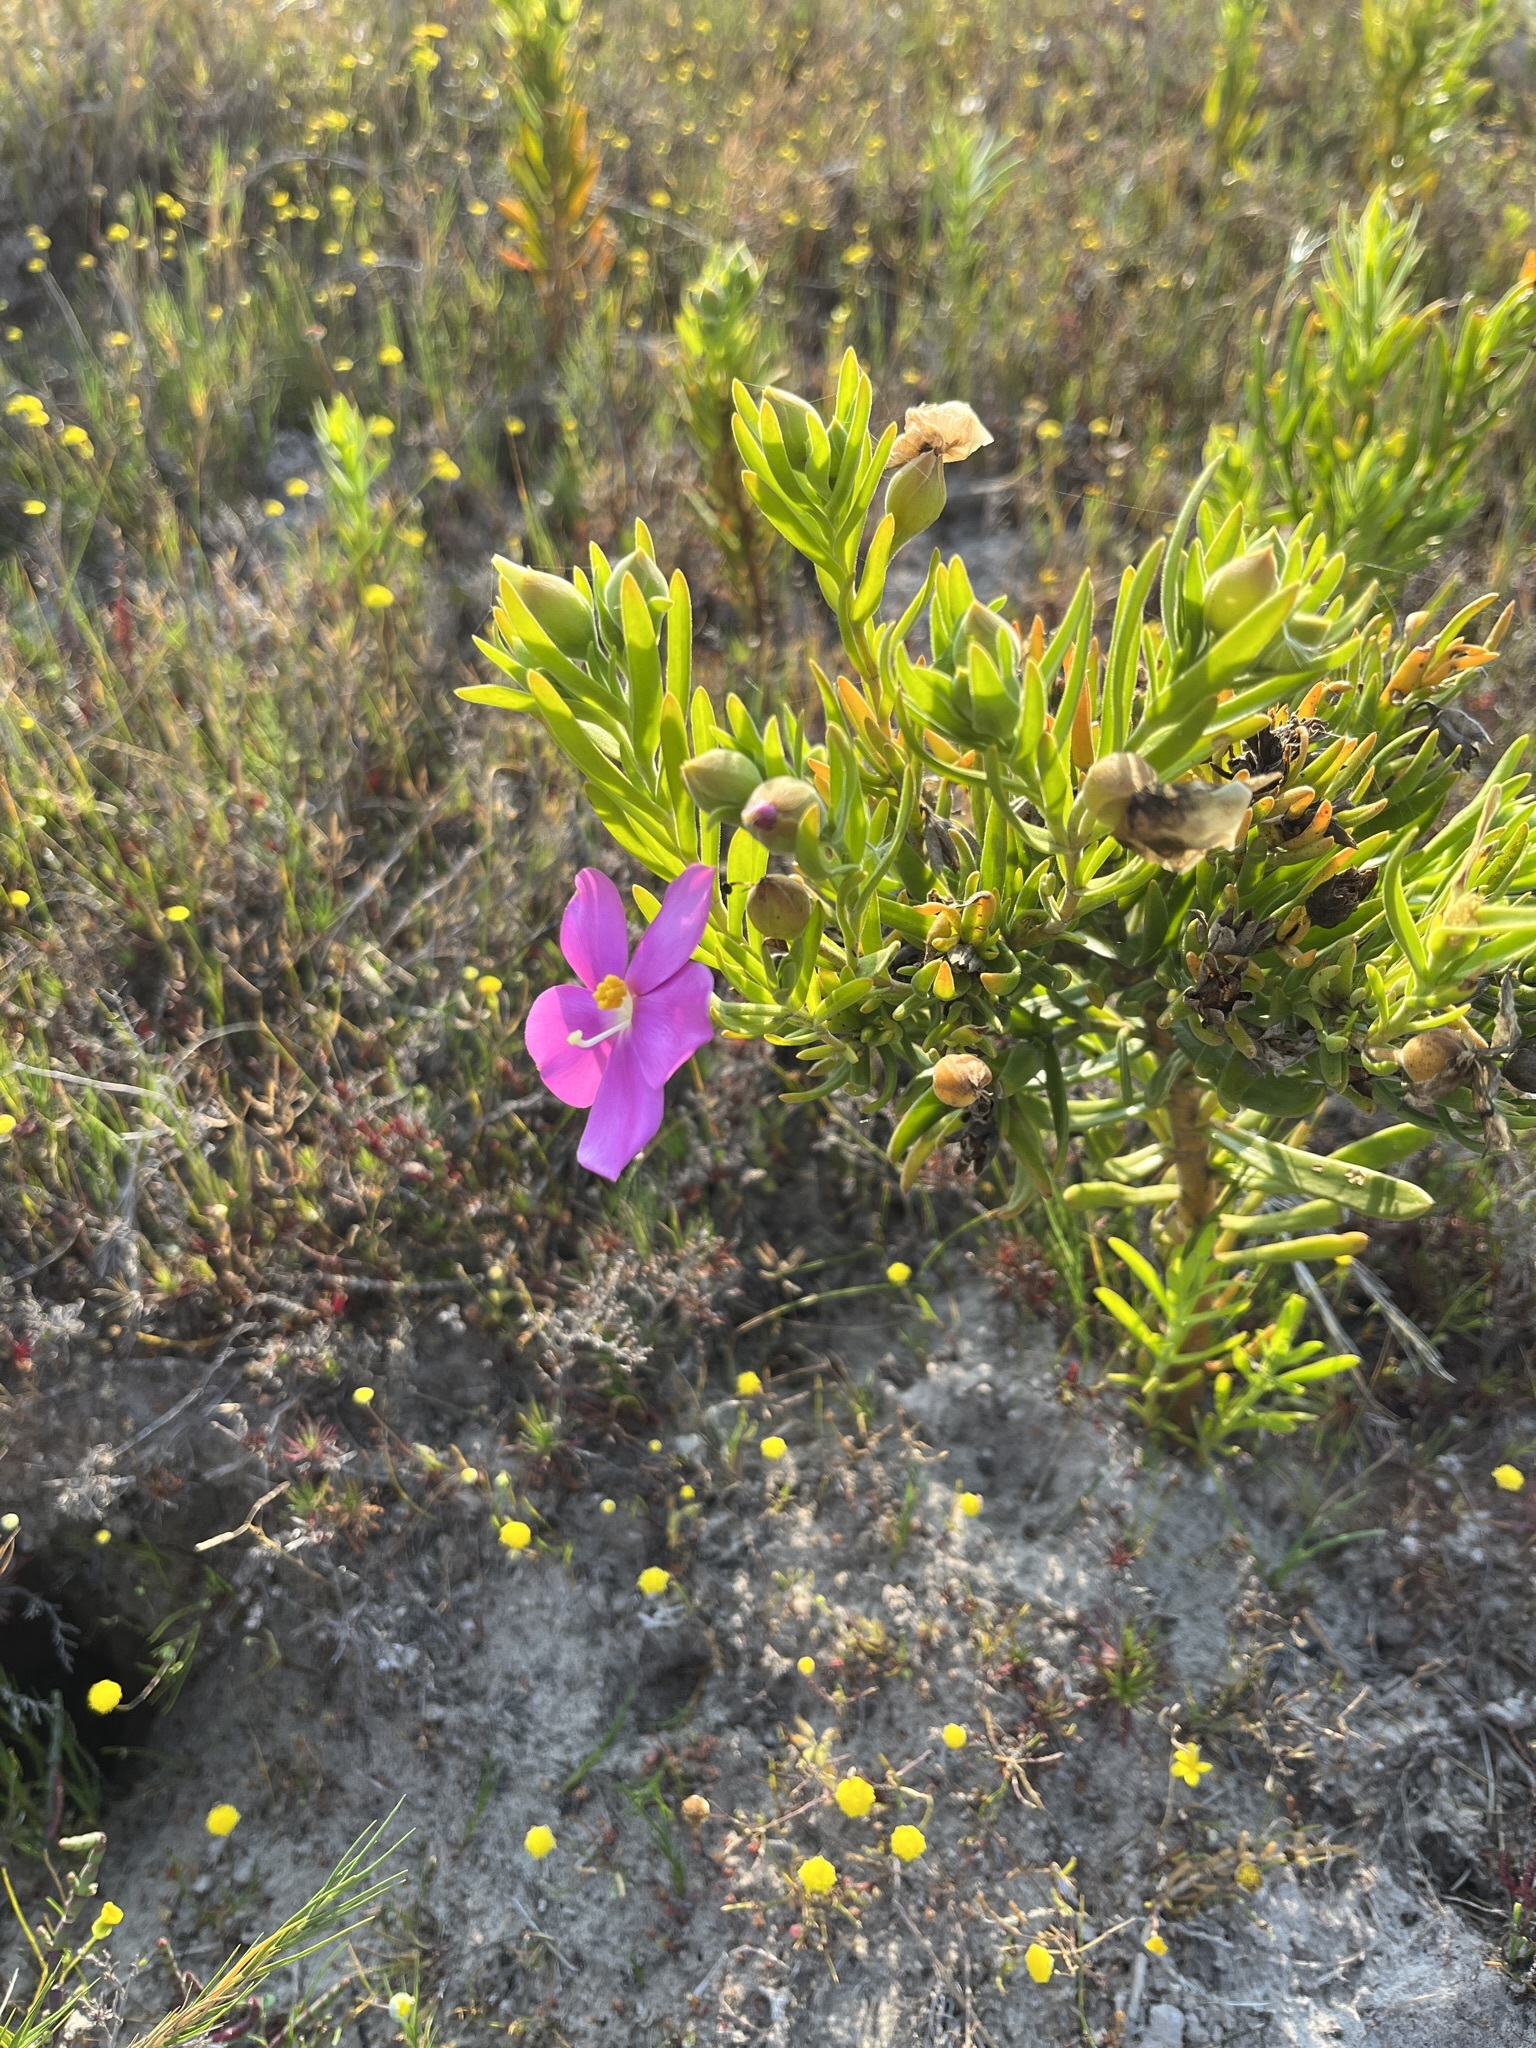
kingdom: Plantae
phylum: Tracheophyta
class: Magnoliopsida
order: Gentianales
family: Gentianaceae
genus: Orphium
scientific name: Orphium frutescens
